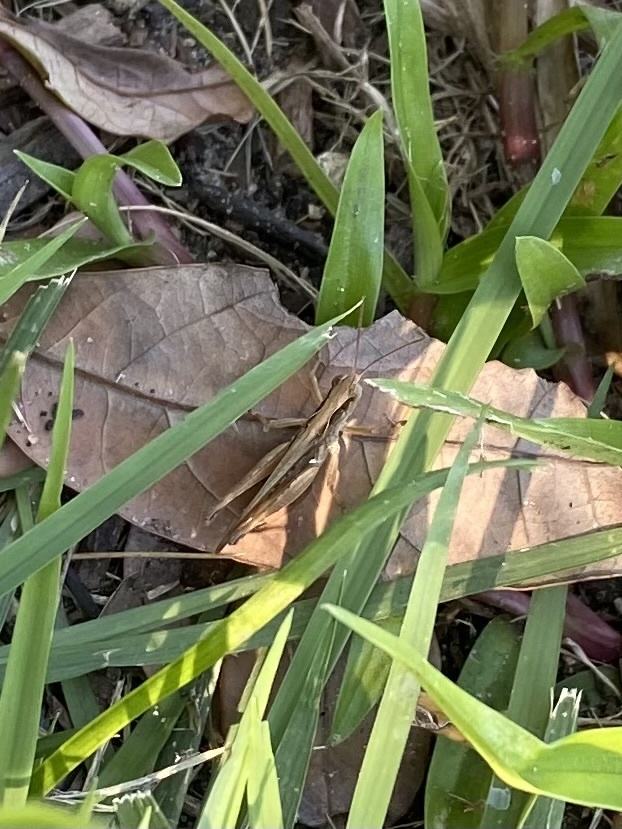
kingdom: Animalia
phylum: Arthropoda
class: Insecta
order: Orthoptera
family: Acrididae
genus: Orphulella
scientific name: Orphulella pelidna
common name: Spotted-wing grasshopper
